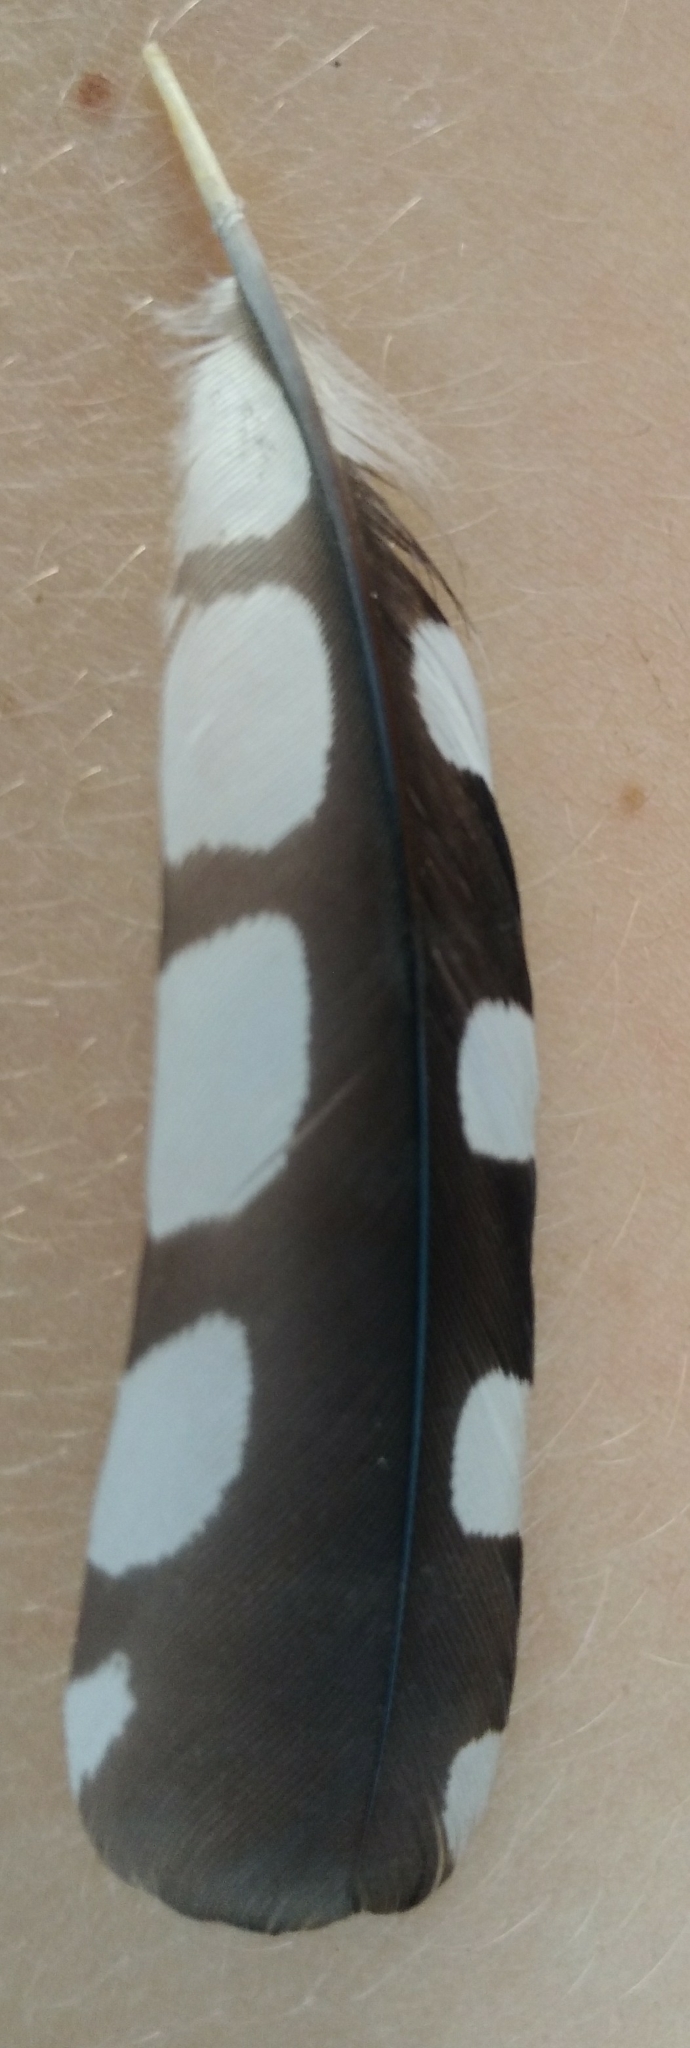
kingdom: Animalia
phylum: Chordata
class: Aves
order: Piciformes
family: Picidae
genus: Dendrocoptes
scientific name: Dendrocoptes medius
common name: Middle spotted woodpecker
